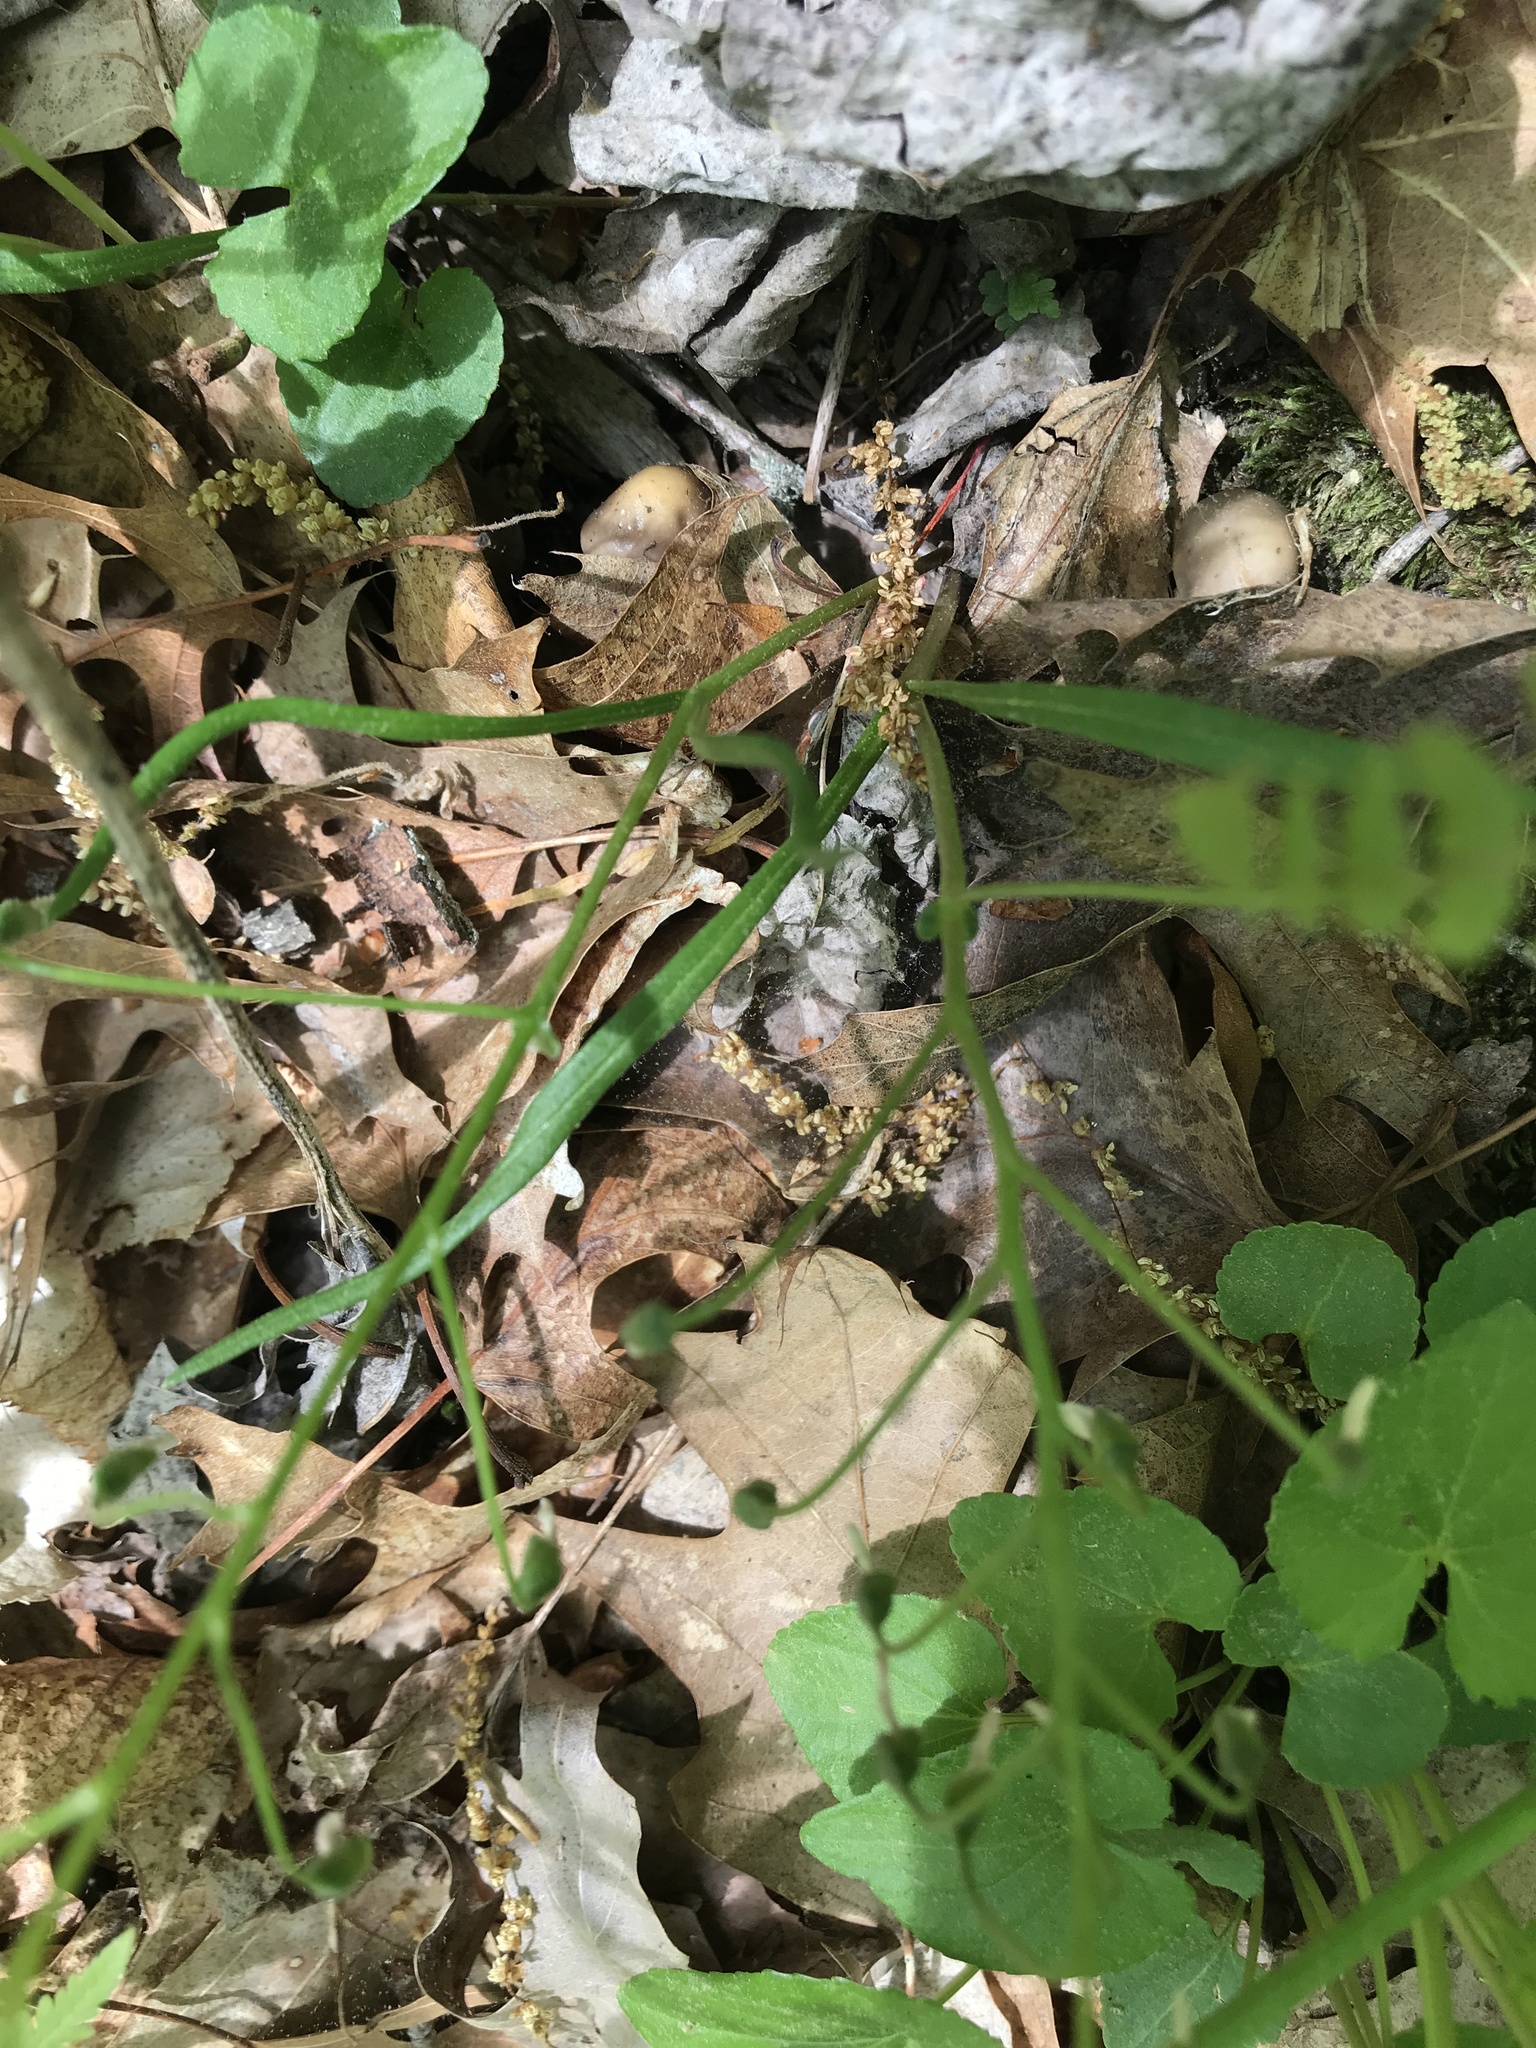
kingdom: Plantae
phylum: Tracheophyta
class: Magnoliopsida
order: Caryophyllales
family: Montiaceae
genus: Claytonia
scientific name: Claytonia virginica
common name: Virginia springbeauty
